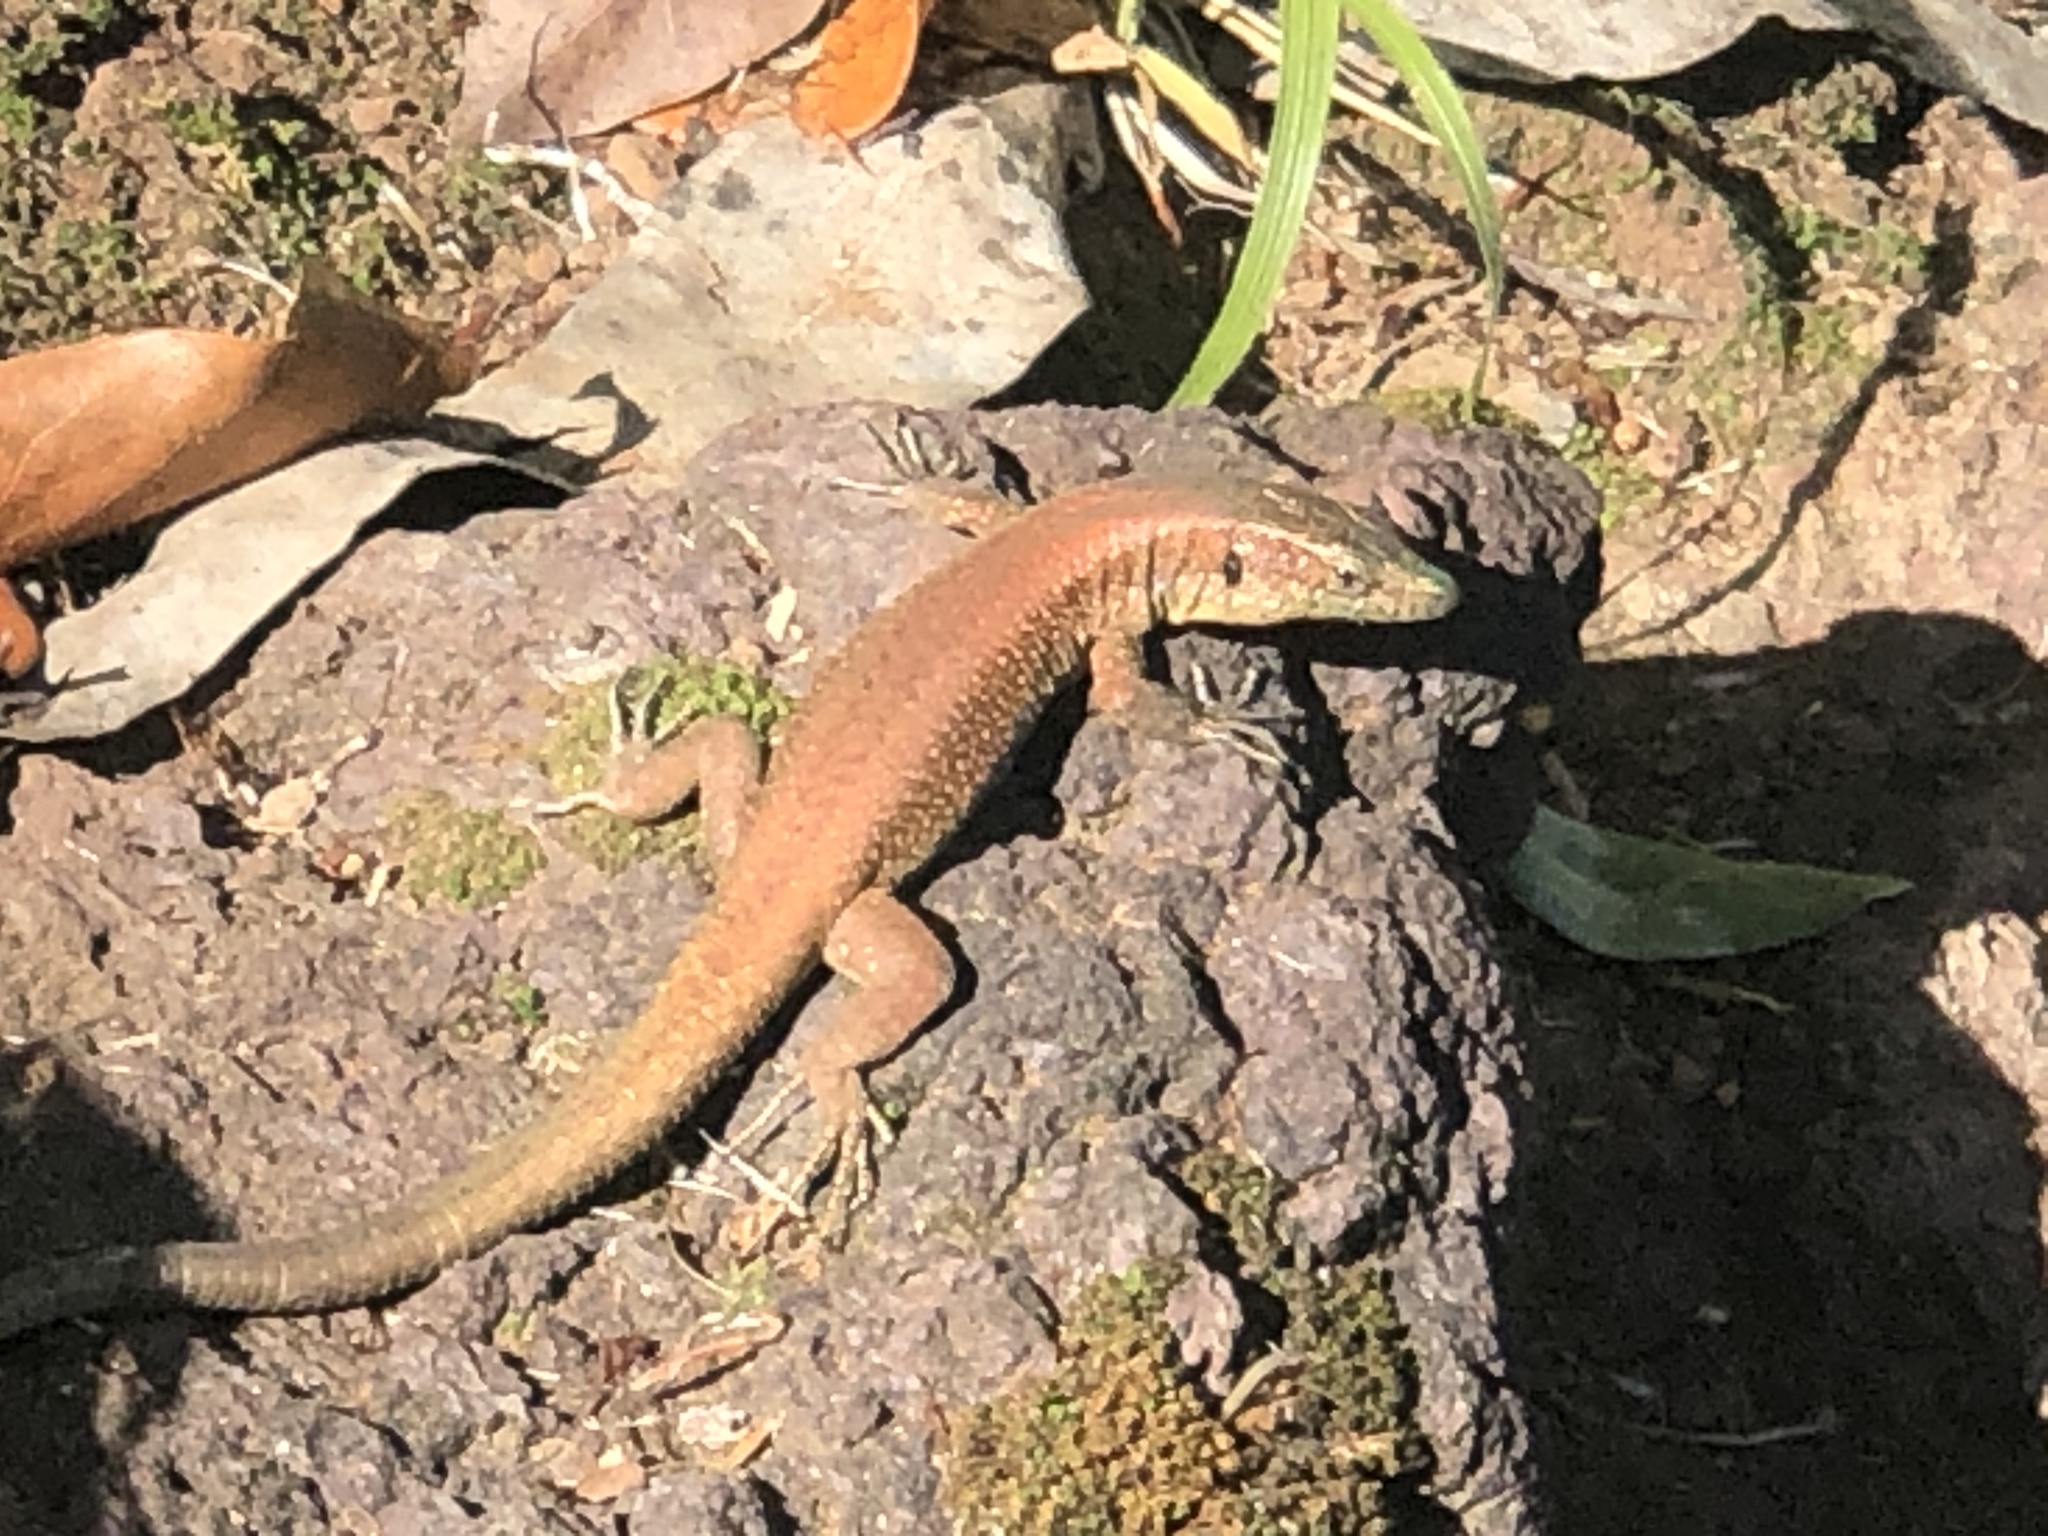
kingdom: Animalia
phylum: Chordata
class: Squamata
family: Lacertidae
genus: Teira
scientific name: Teira dugesii
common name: Madeira lizard
